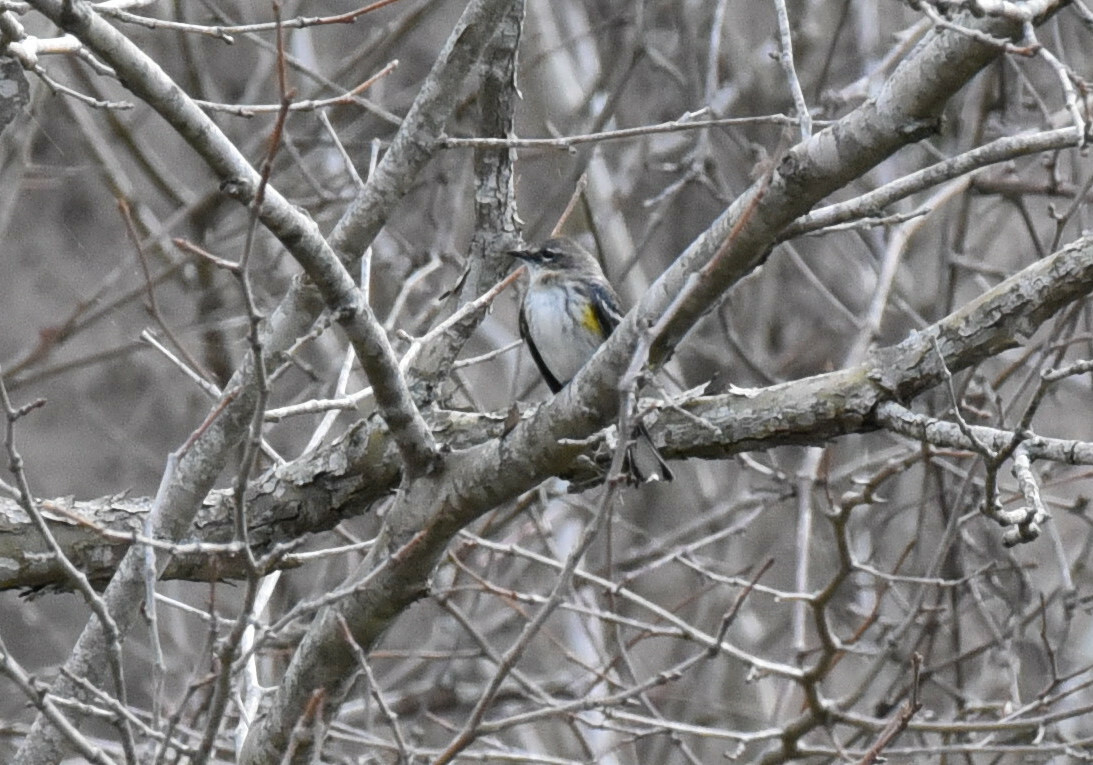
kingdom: Animalia
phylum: Chordata
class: Aves
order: Passeriformes
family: Parulidae
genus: Setophaga
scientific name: Setophaga coronata
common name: Myrtle warbler
